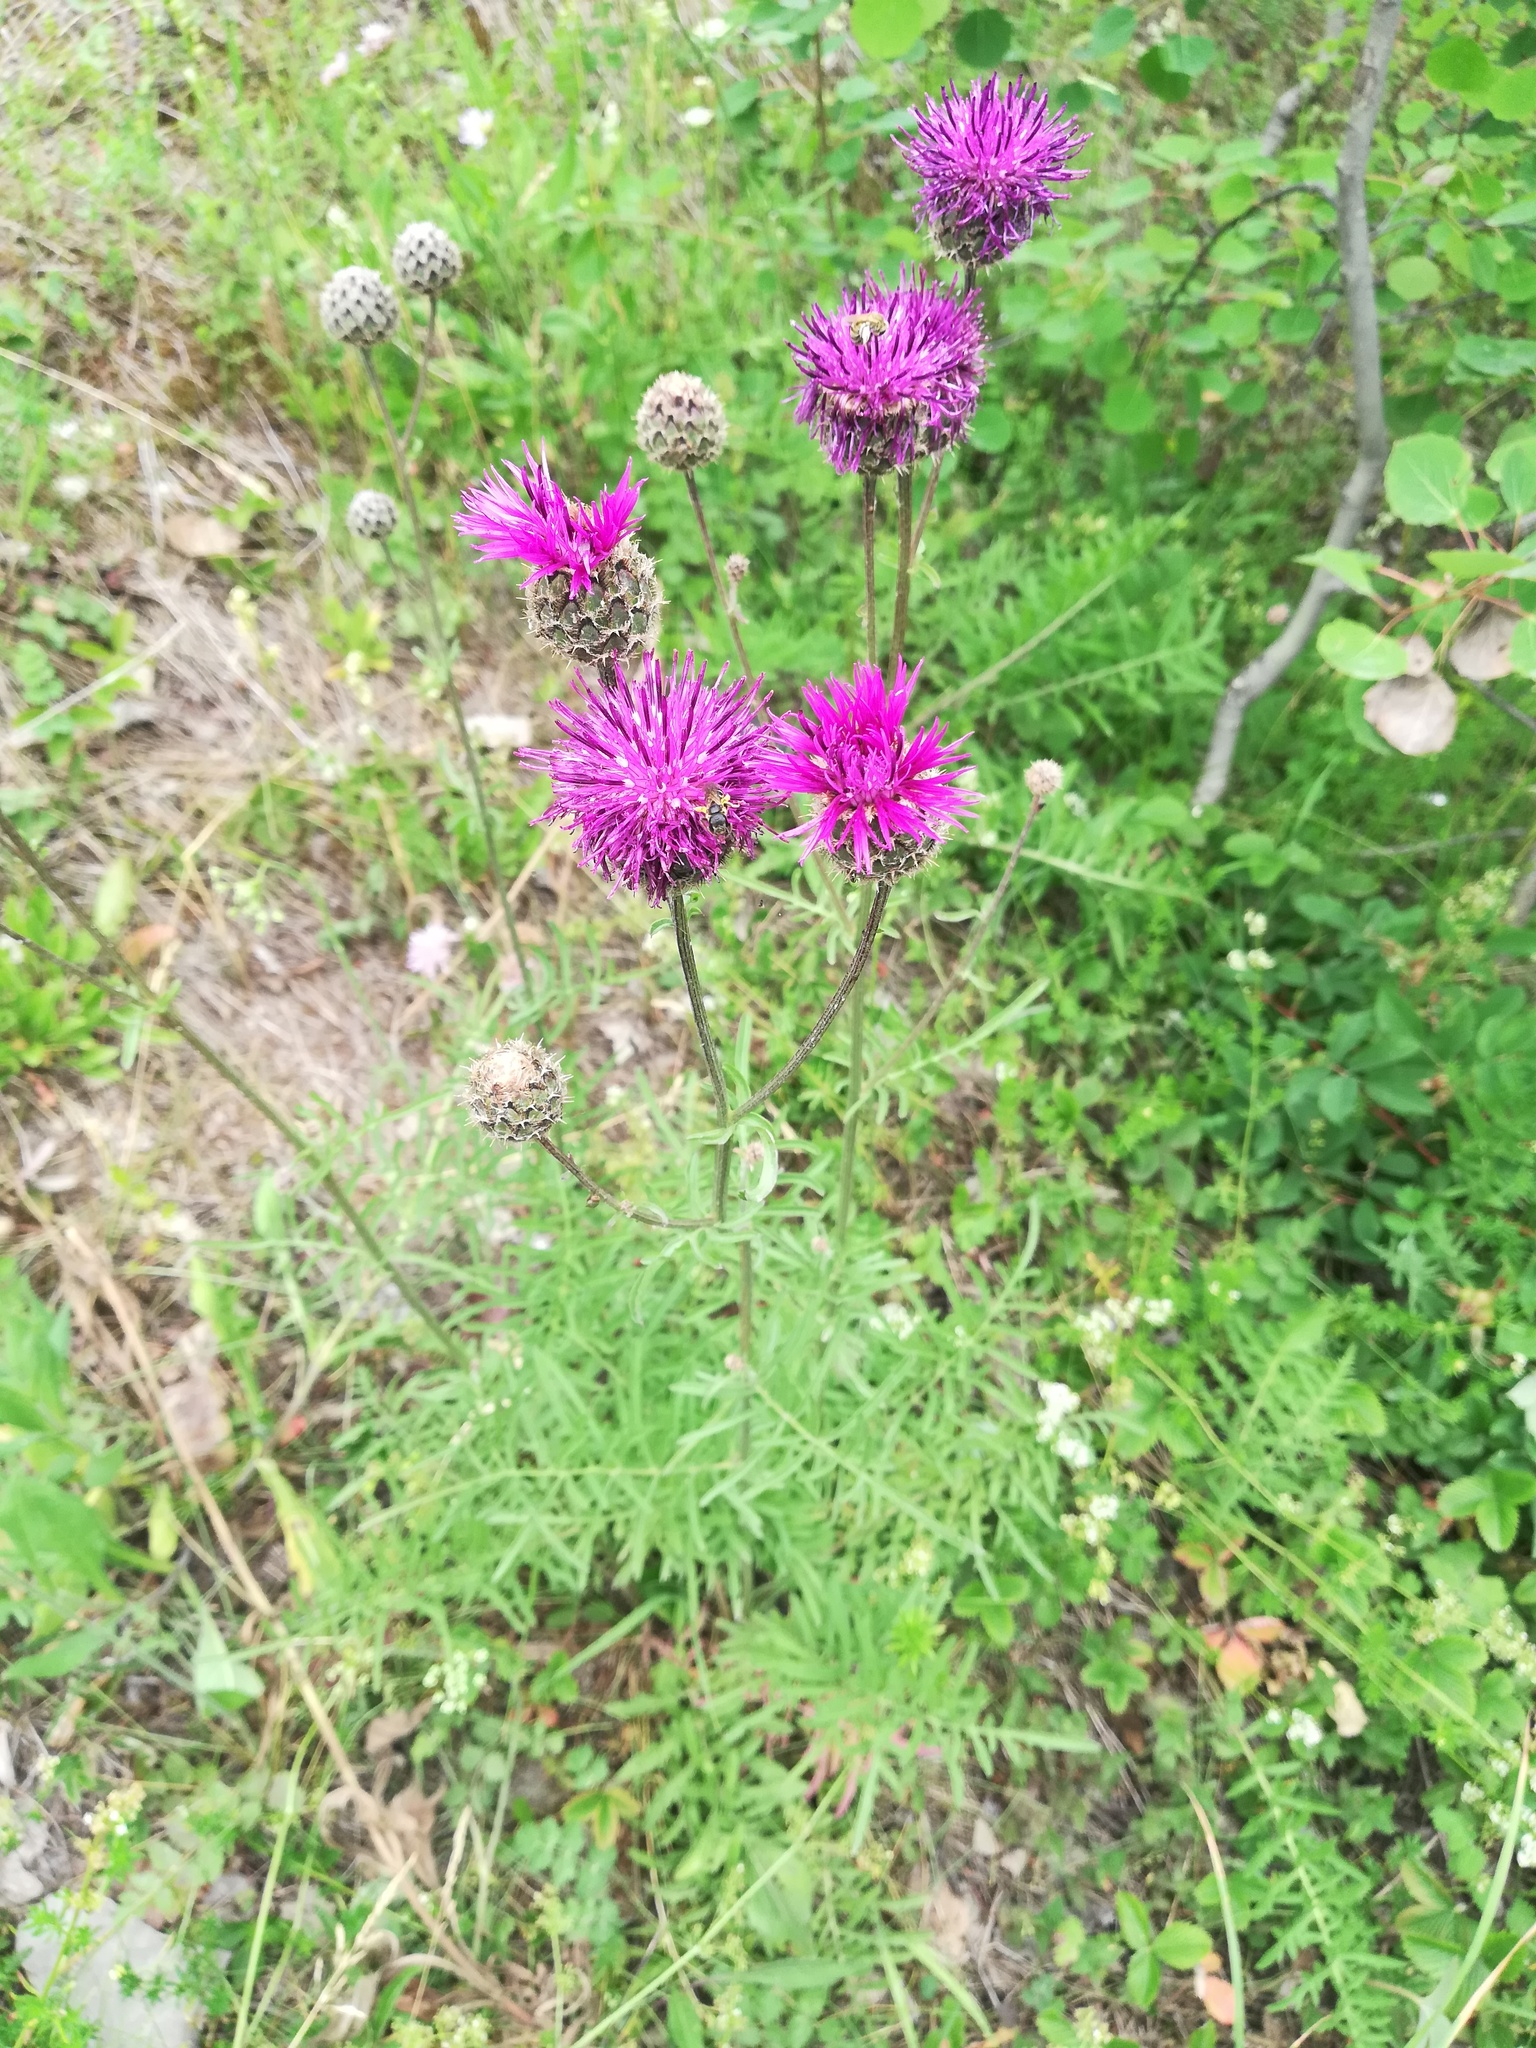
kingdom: Plantae
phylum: Tracheophyta
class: Magnoliopsida
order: Asterales
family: Asteraceae
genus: Centaurea
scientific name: Centaurea scabiosa
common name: Greater knapweed
